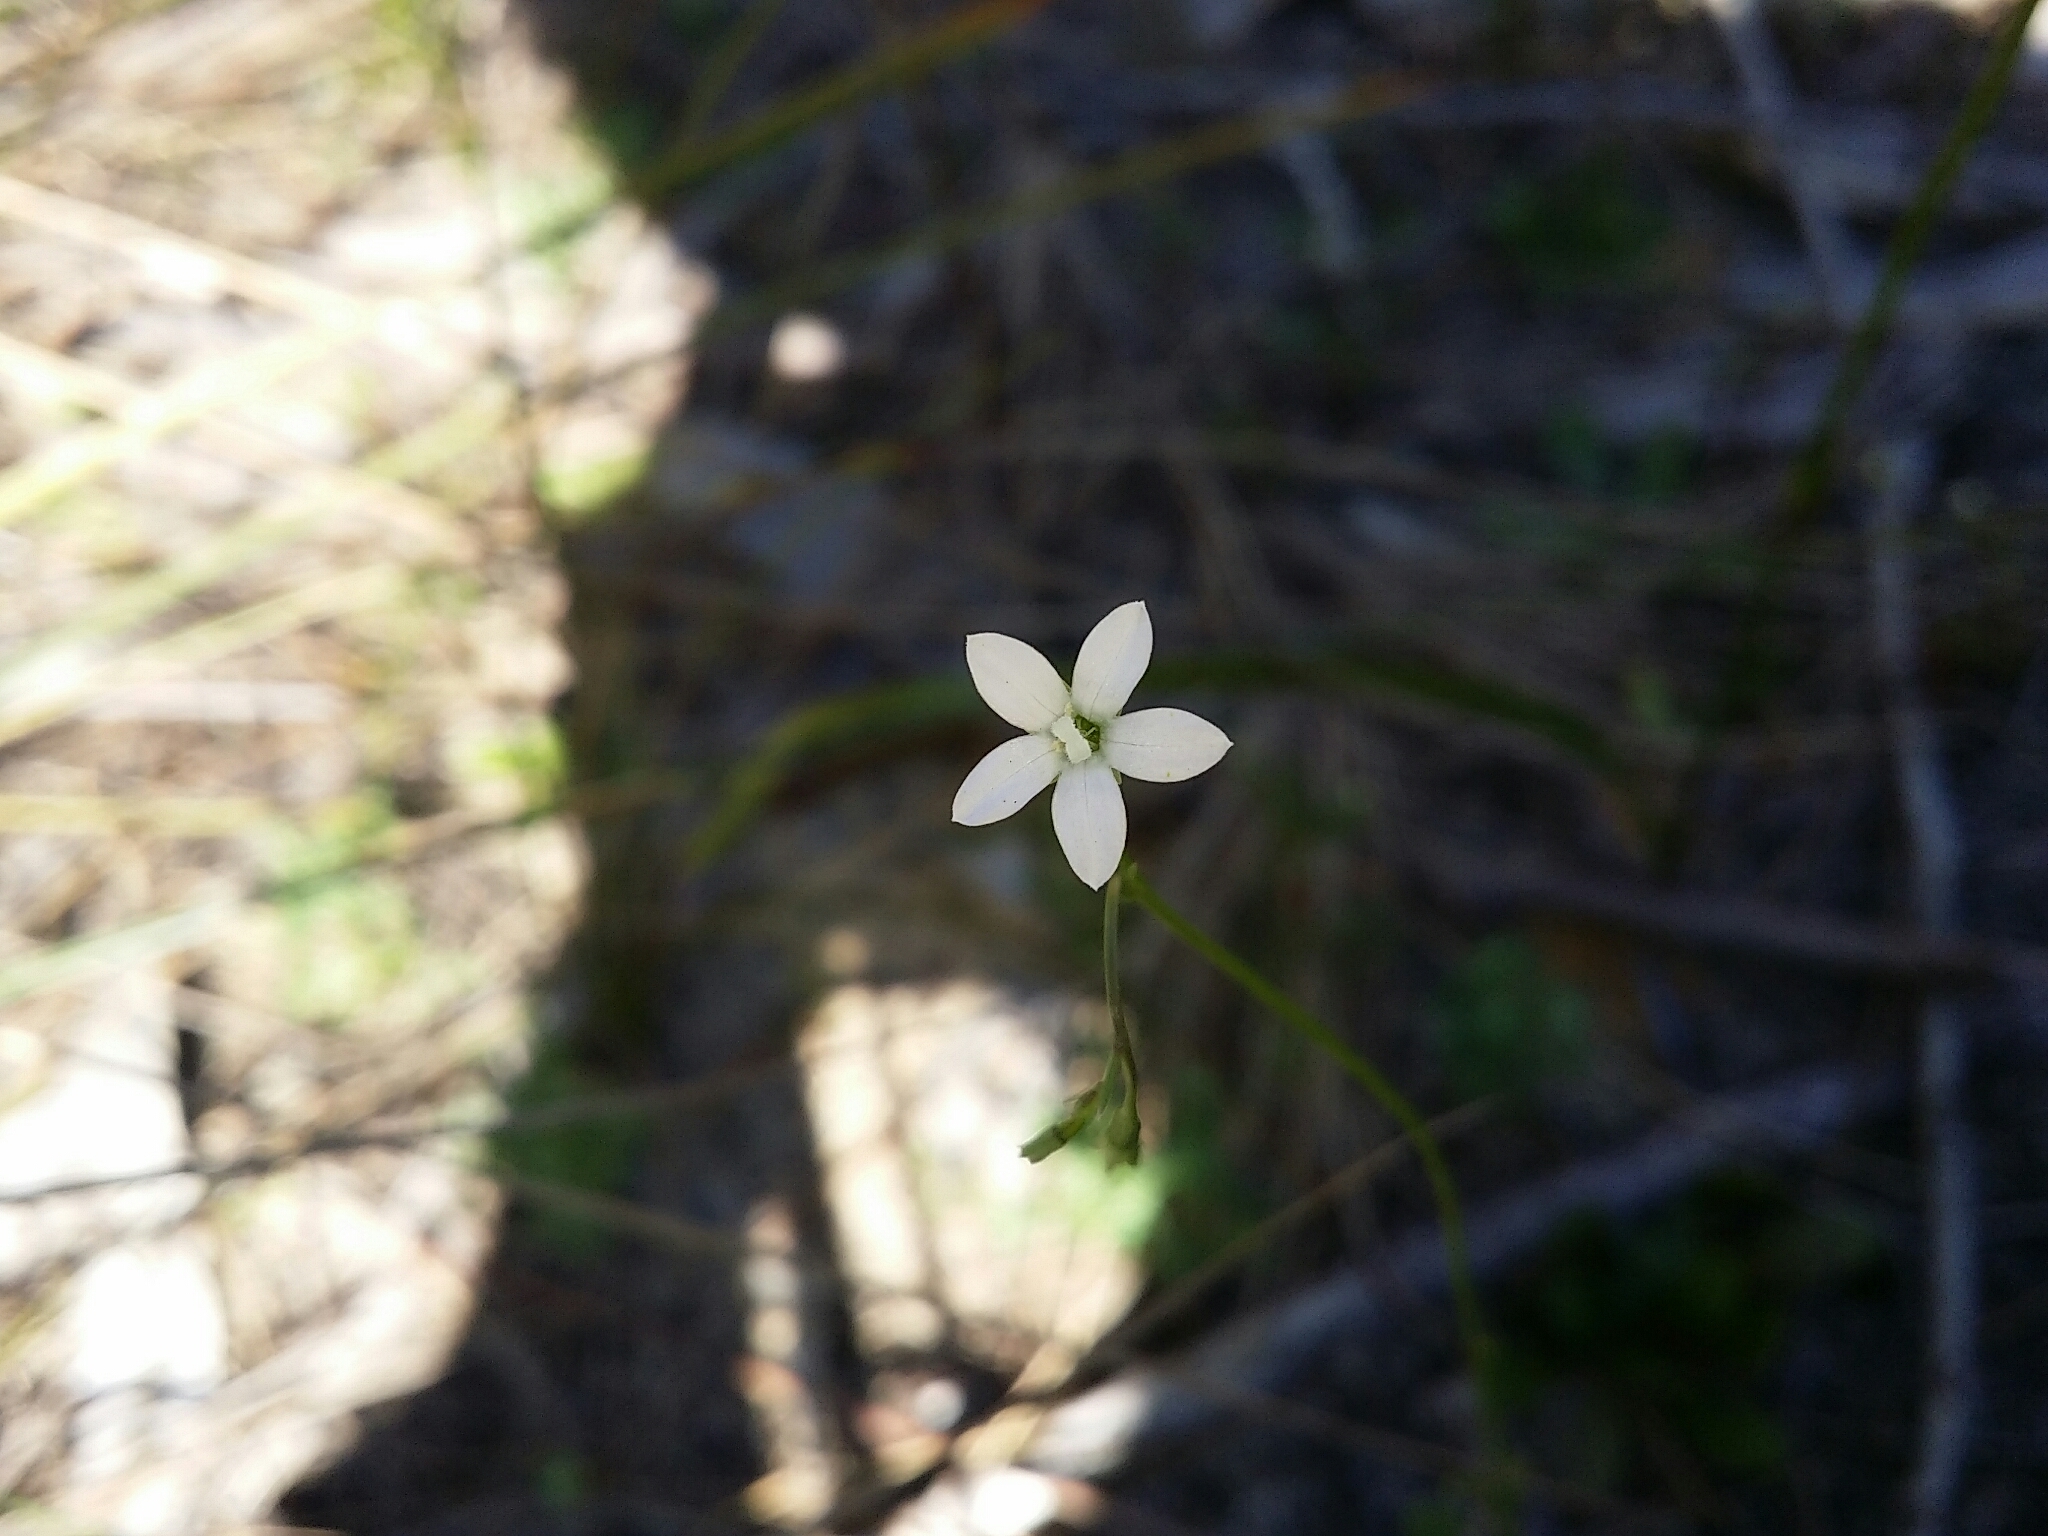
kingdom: Plantae
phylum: Tracheophyta
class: Magnoliopsida
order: Asterales
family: Campanulaceae
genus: Wahlenbergia
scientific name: Wahlenbergia preissii
